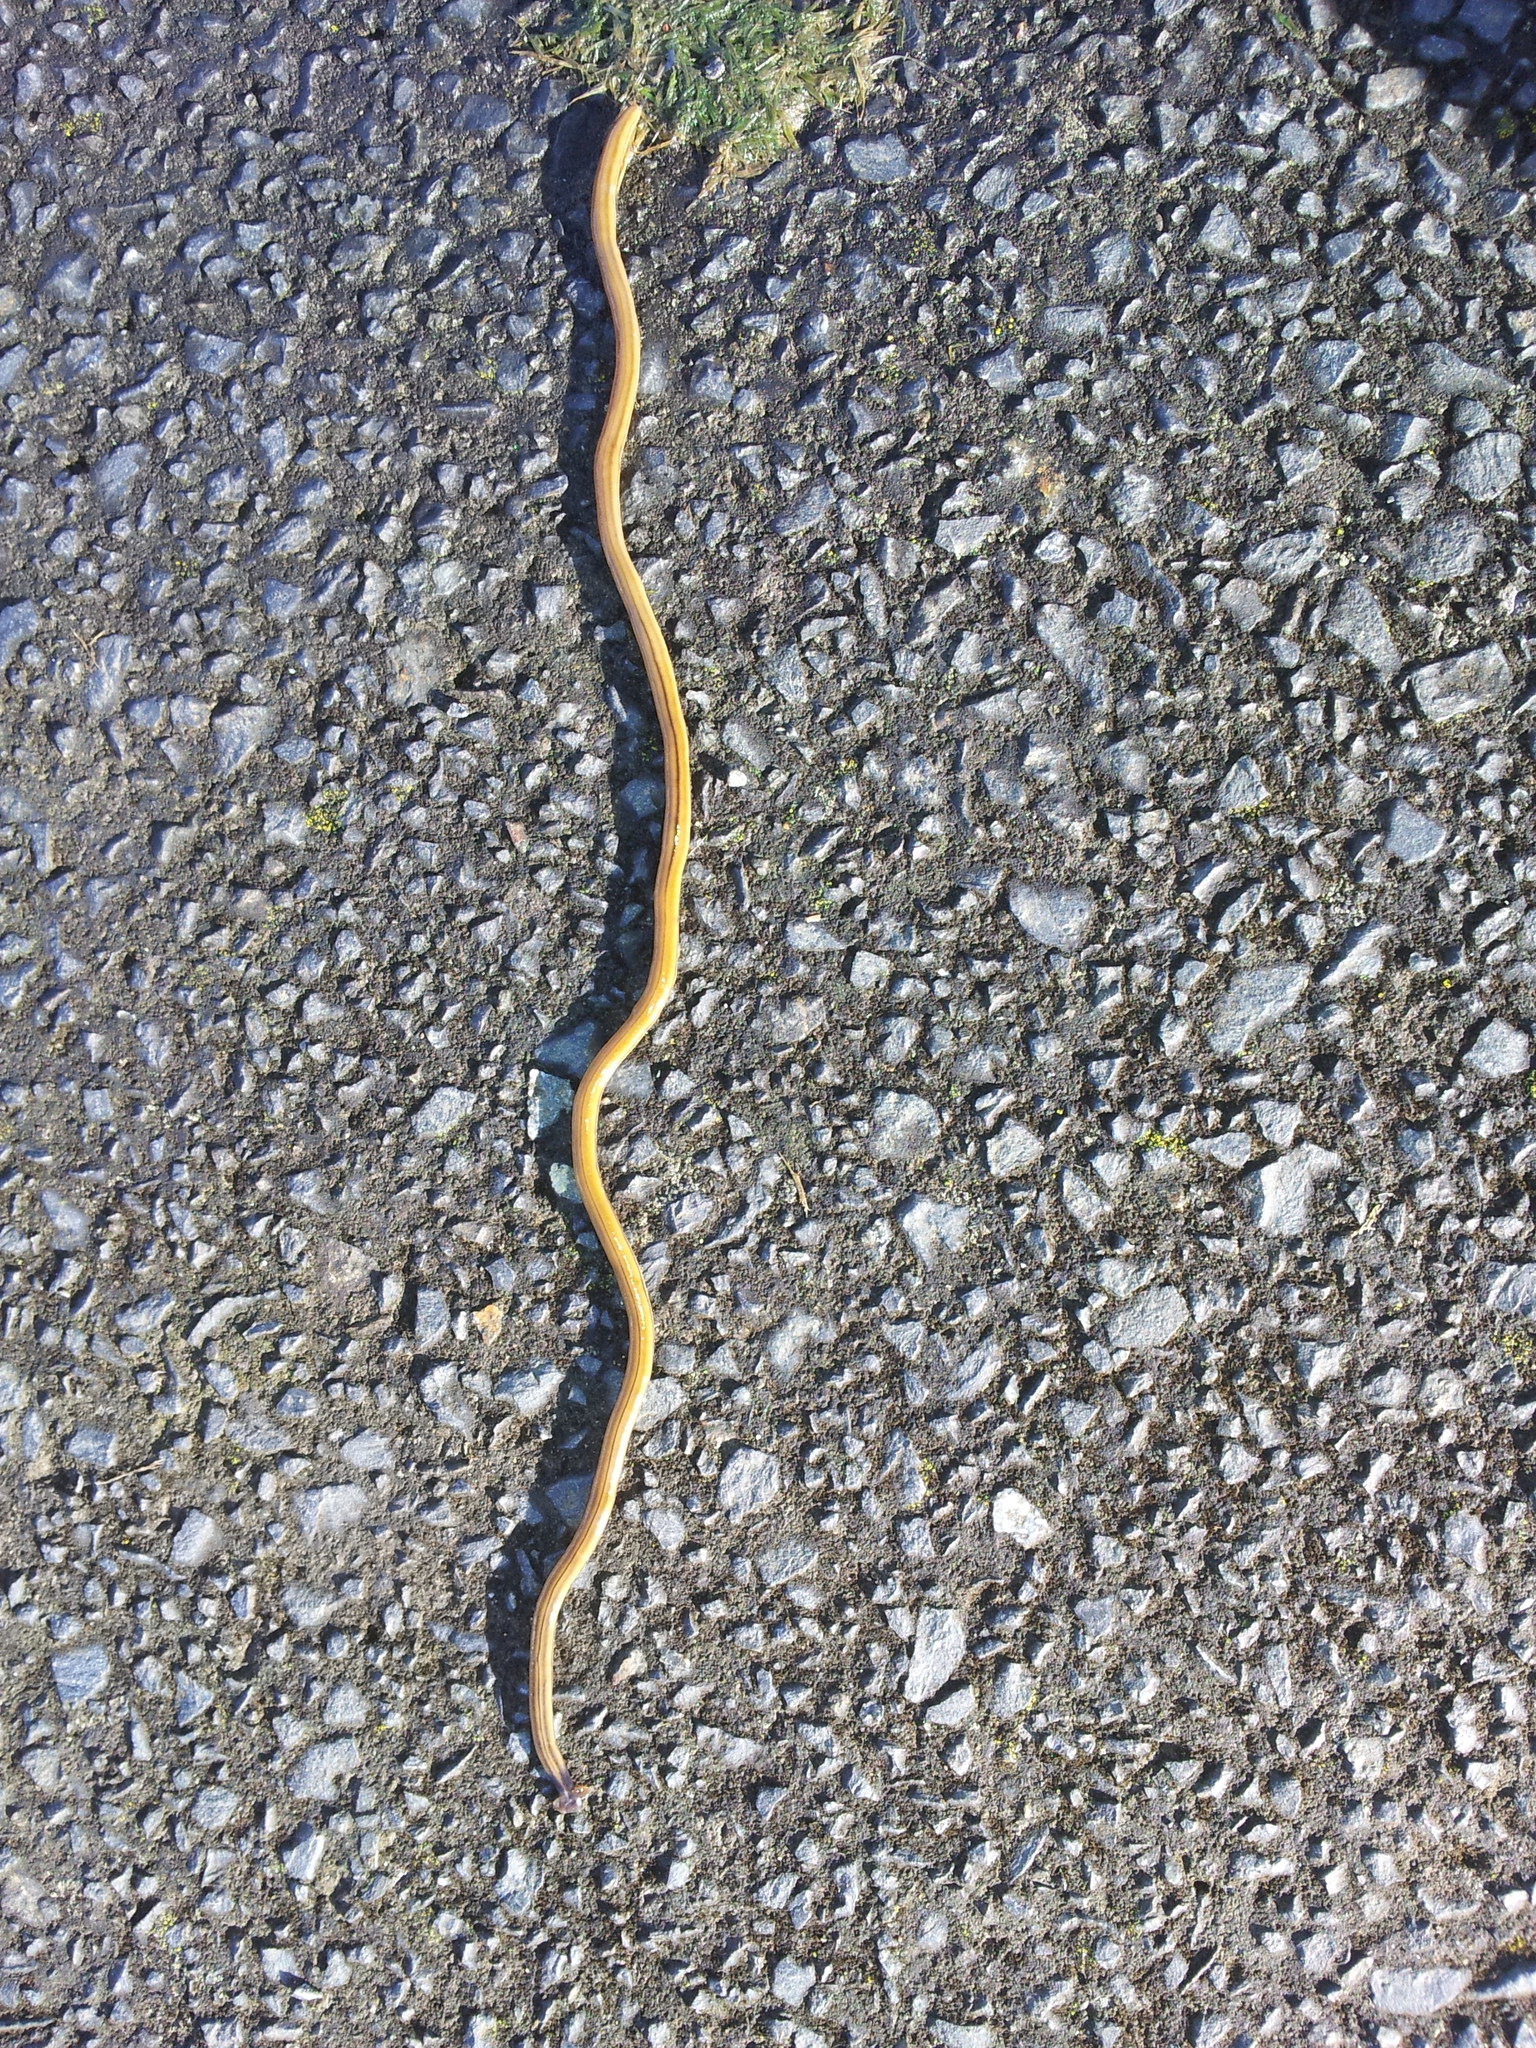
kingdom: Animalia
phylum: Platyhelminthes
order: Tricladida
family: Geoplanidae
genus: Bipalium
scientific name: Bipalium kewense
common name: Hammerhead flatworm
